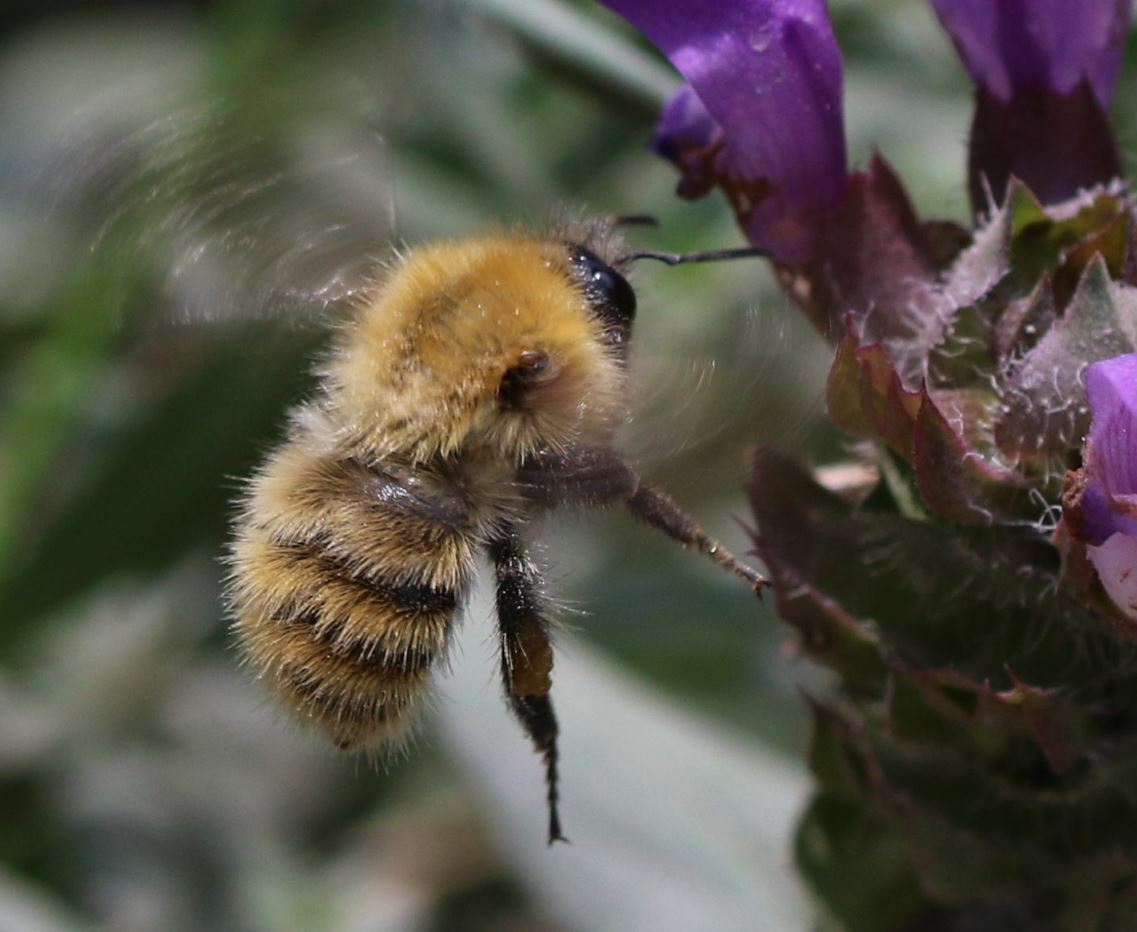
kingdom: Animalia
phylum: Arthropoda
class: Insecta
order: Hymenoptera
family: Apidae
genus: Bombus
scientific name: Bombus pascuorum
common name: Common carder bee
